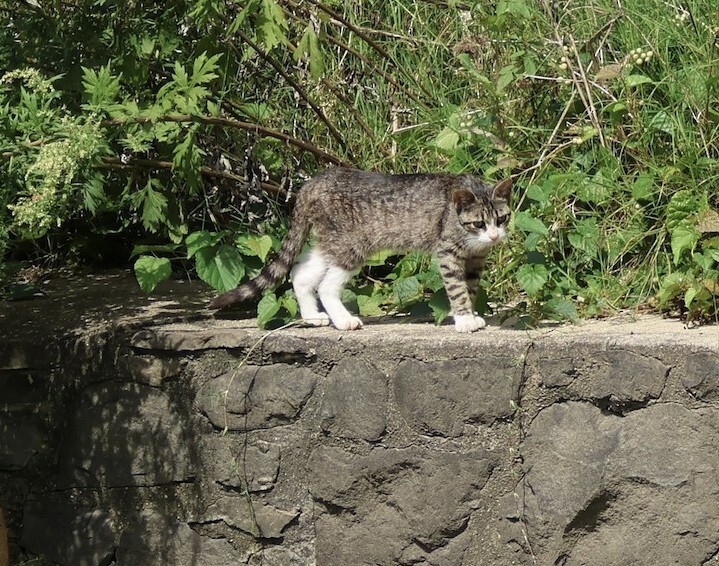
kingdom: Animalia
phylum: Chordata
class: Mammalia
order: Carnivora
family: Felidae
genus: Felis
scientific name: Felis catus
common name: Domestic cat
